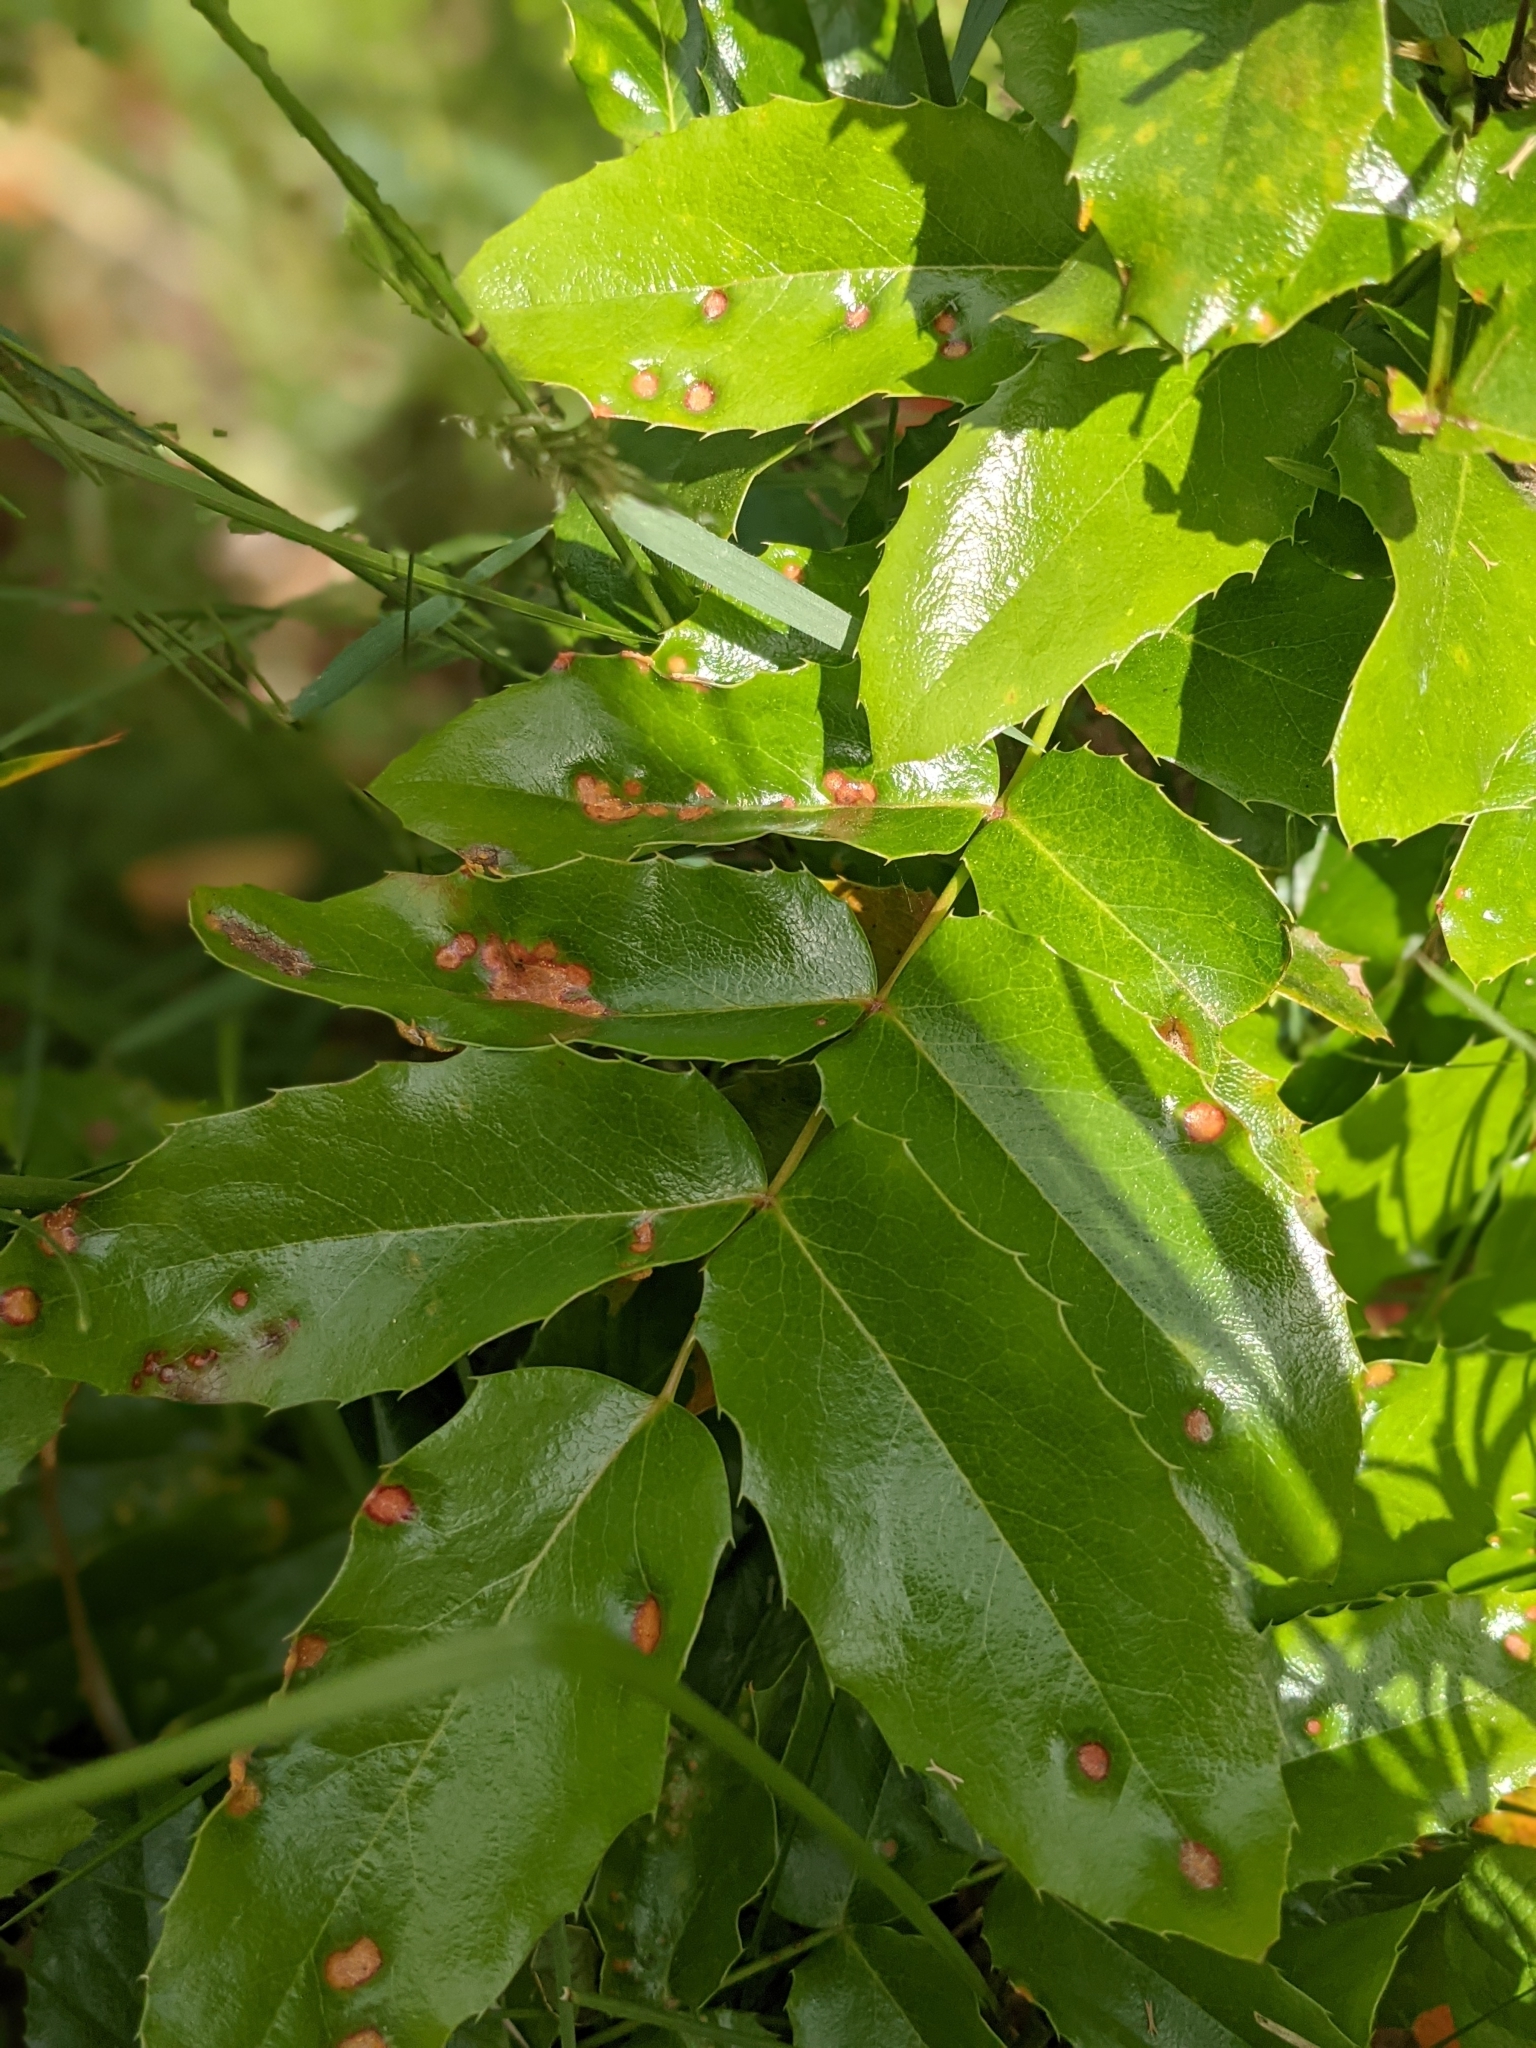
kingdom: Plantae
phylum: Tracheophyta
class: Magnoliopsida
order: Ranunculales
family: Berberidaceae
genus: Mahonia
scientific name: Mahonia aquifolium
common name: Oregon-grape
